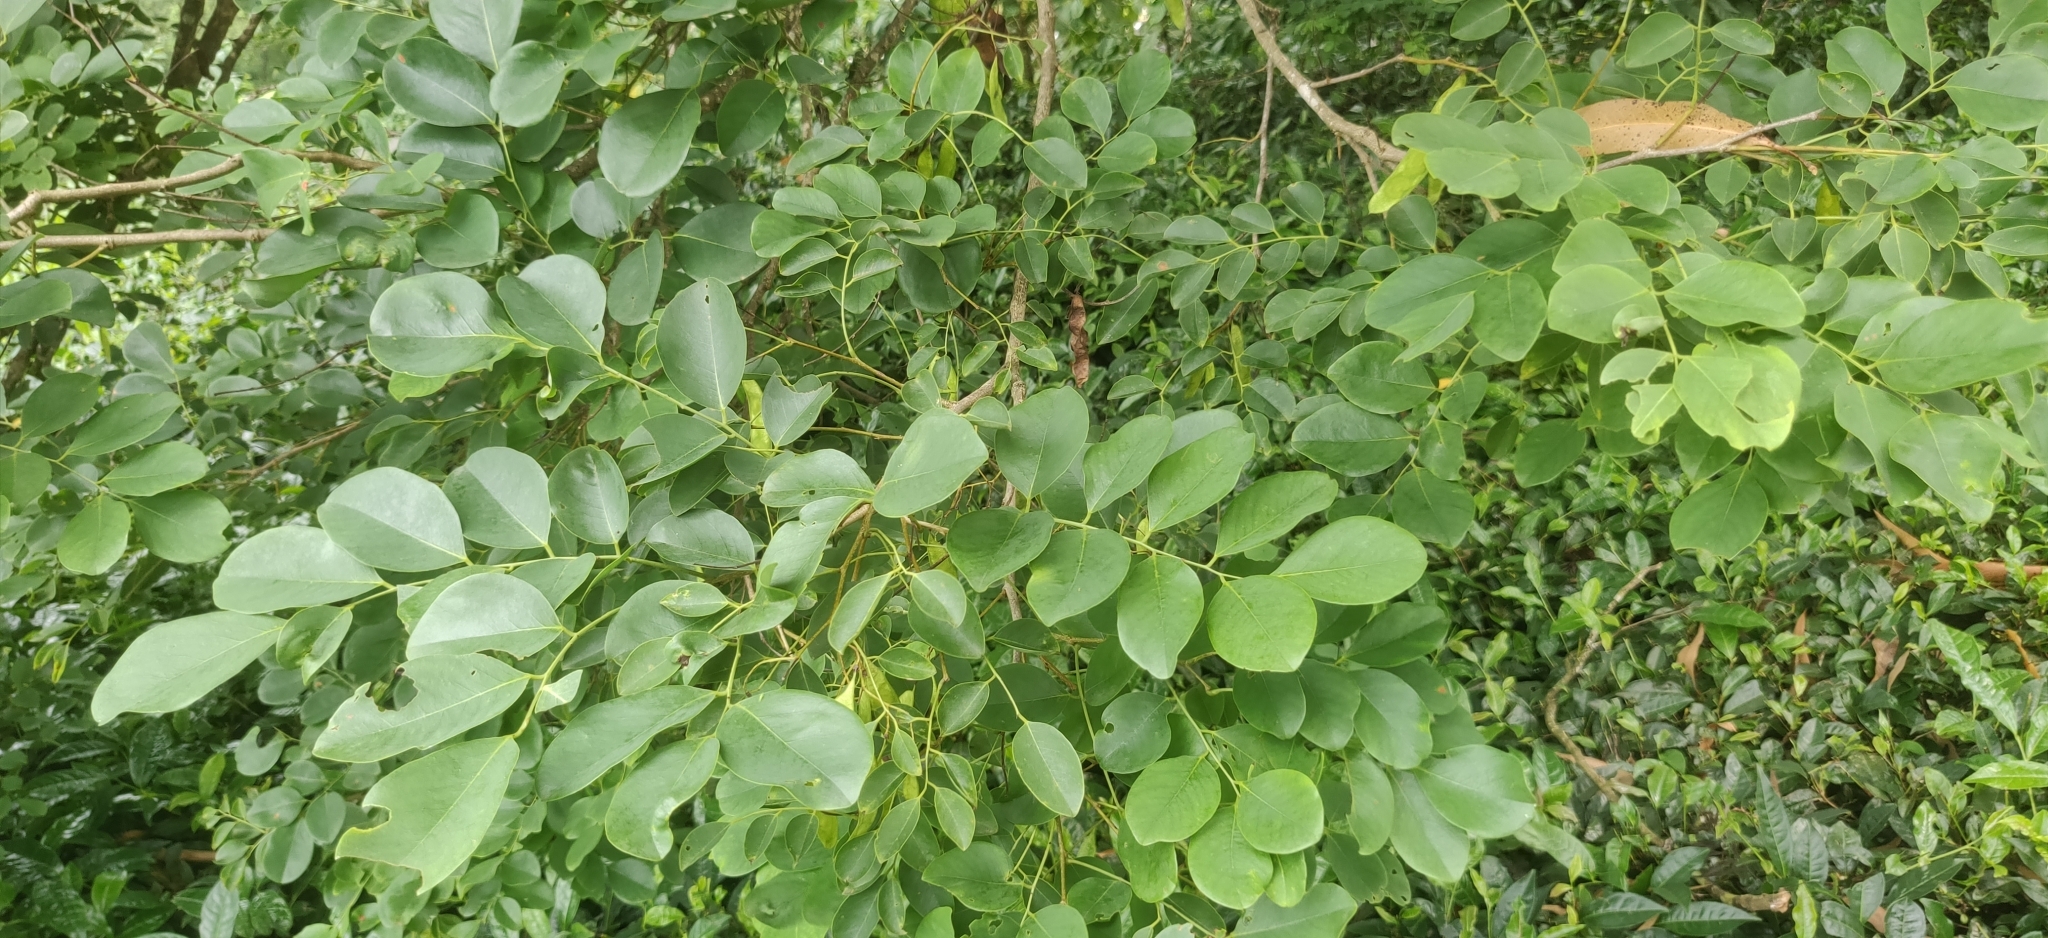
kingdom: Plantae
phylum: Tracheophyta
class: Magnoliopsida
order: Fabales
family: Fabaceae
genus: Dalbergia
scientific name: Dalbergia latifolia
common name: Bombay blackwood
